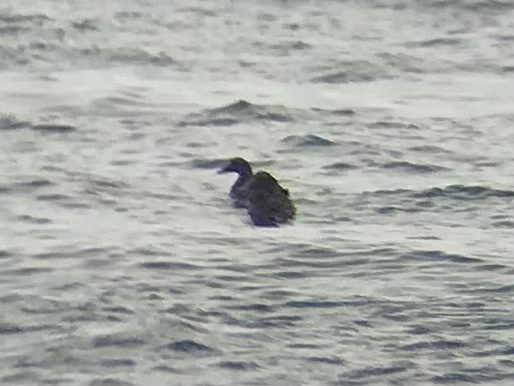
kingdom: Animalia
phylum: Chordata
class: Aves
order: Anseriformes
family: Anatidae
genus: Somateria
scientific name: Somateria mollissima
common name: Common eider
